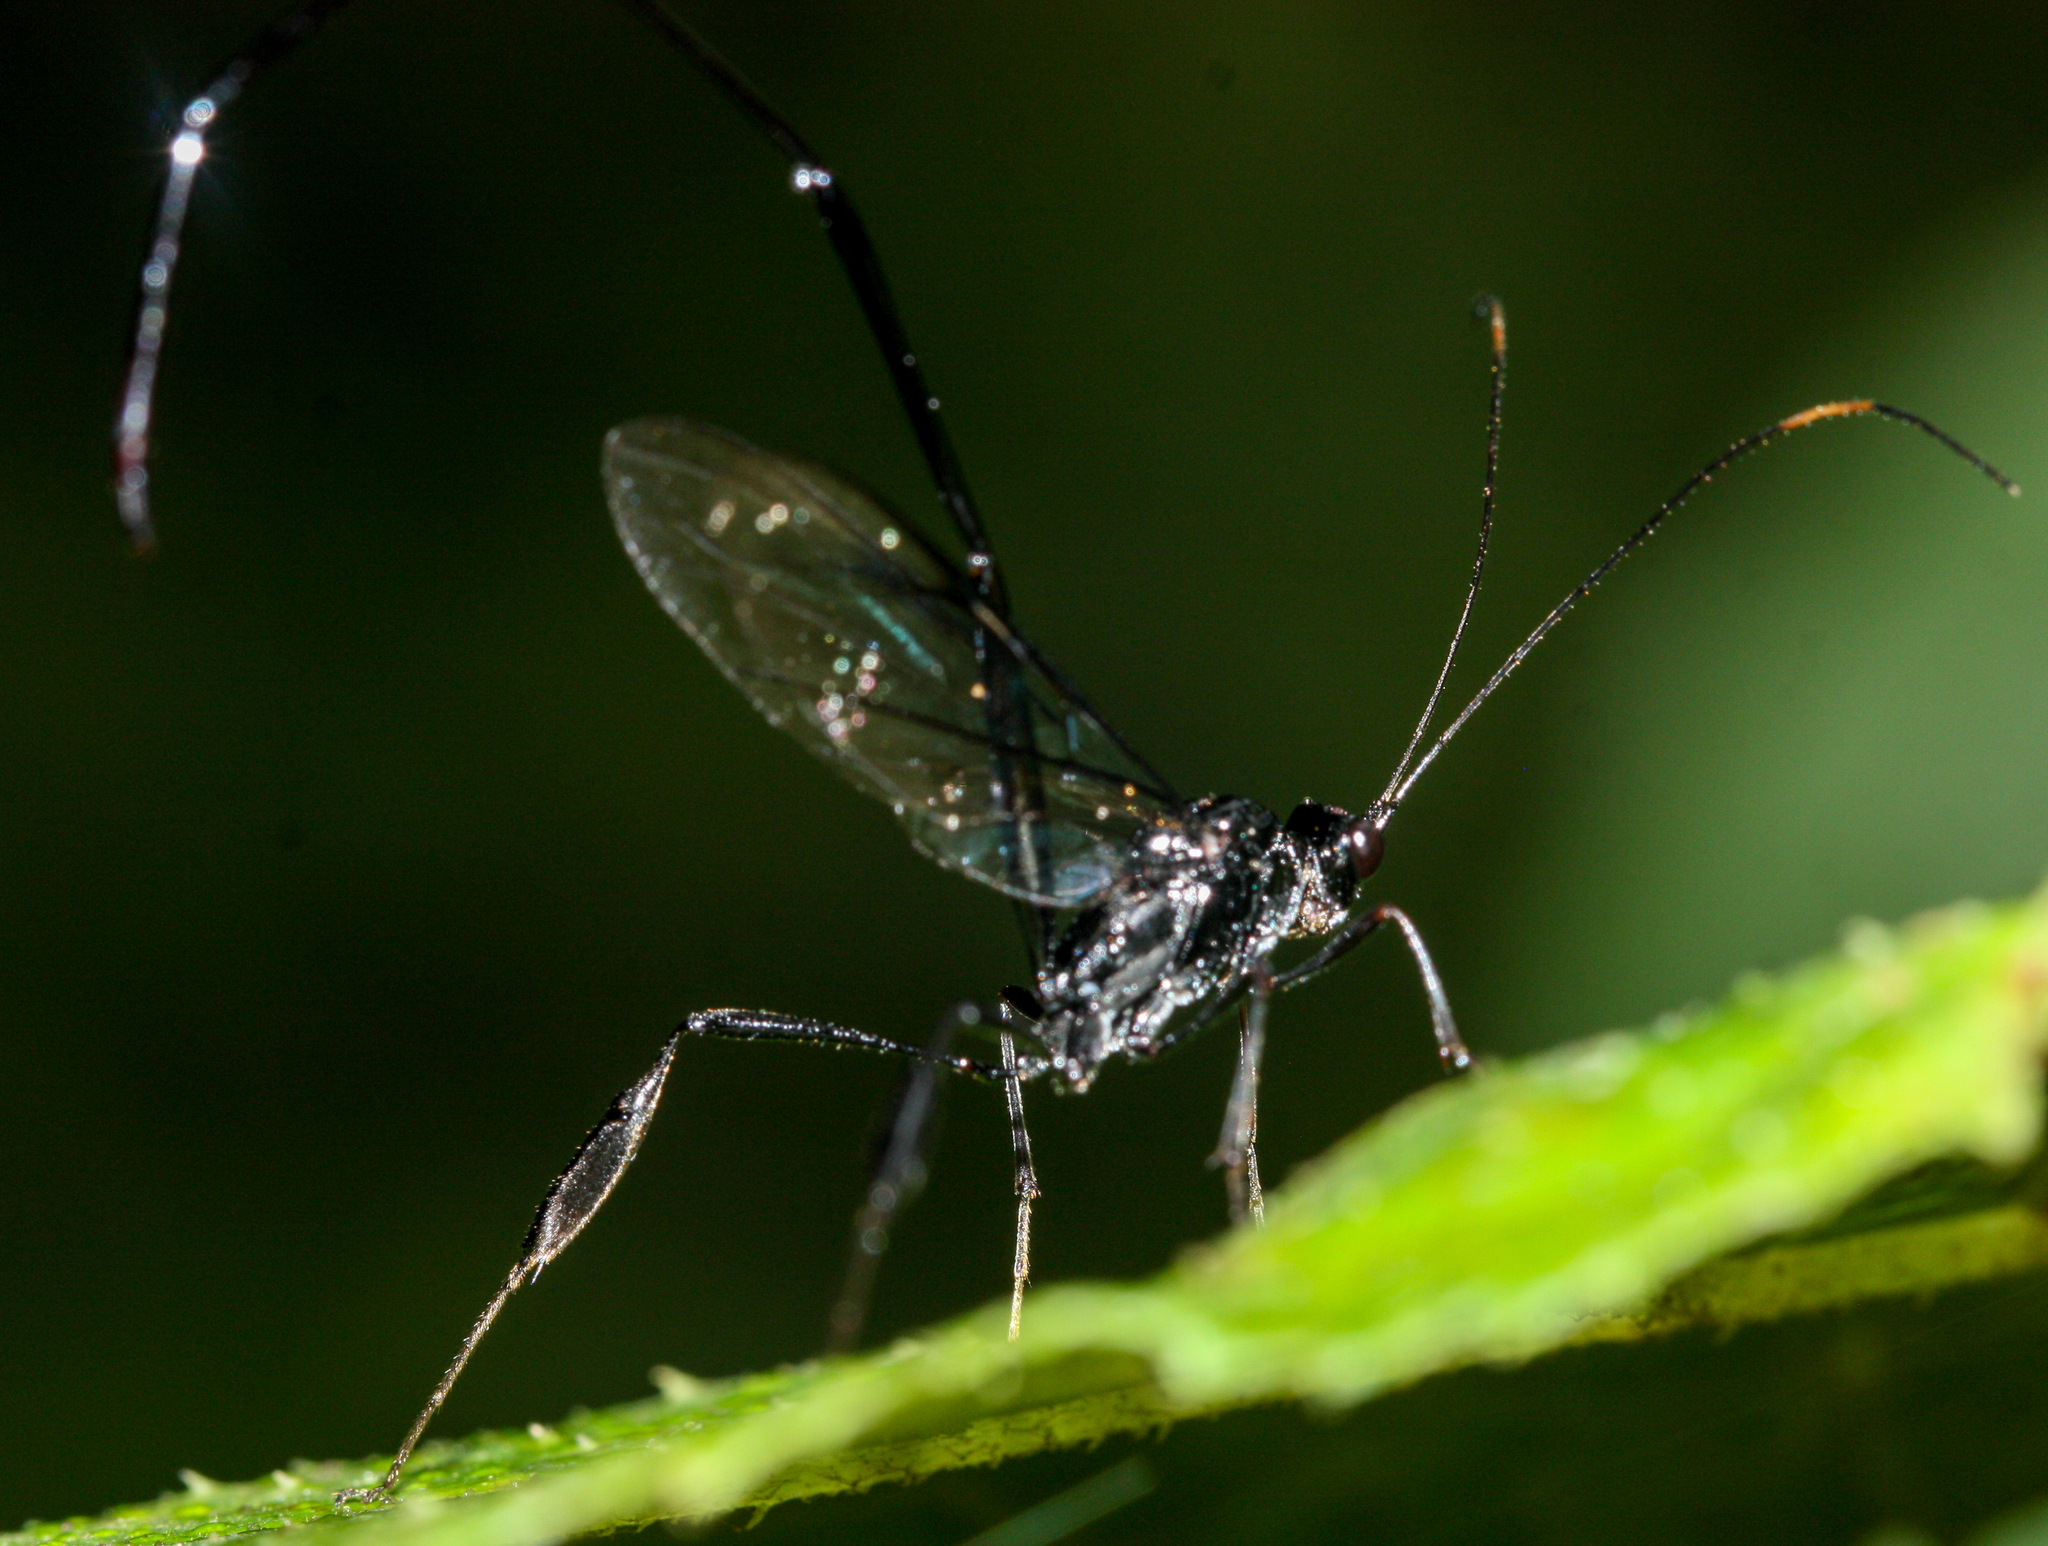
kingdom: Animalia
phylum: Arthropoda
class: Insecta
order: Hymenoptera
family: Pelecinidae
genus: Pelecinus
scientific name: Pelecinus polyturator
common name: American pelecinid wasp
